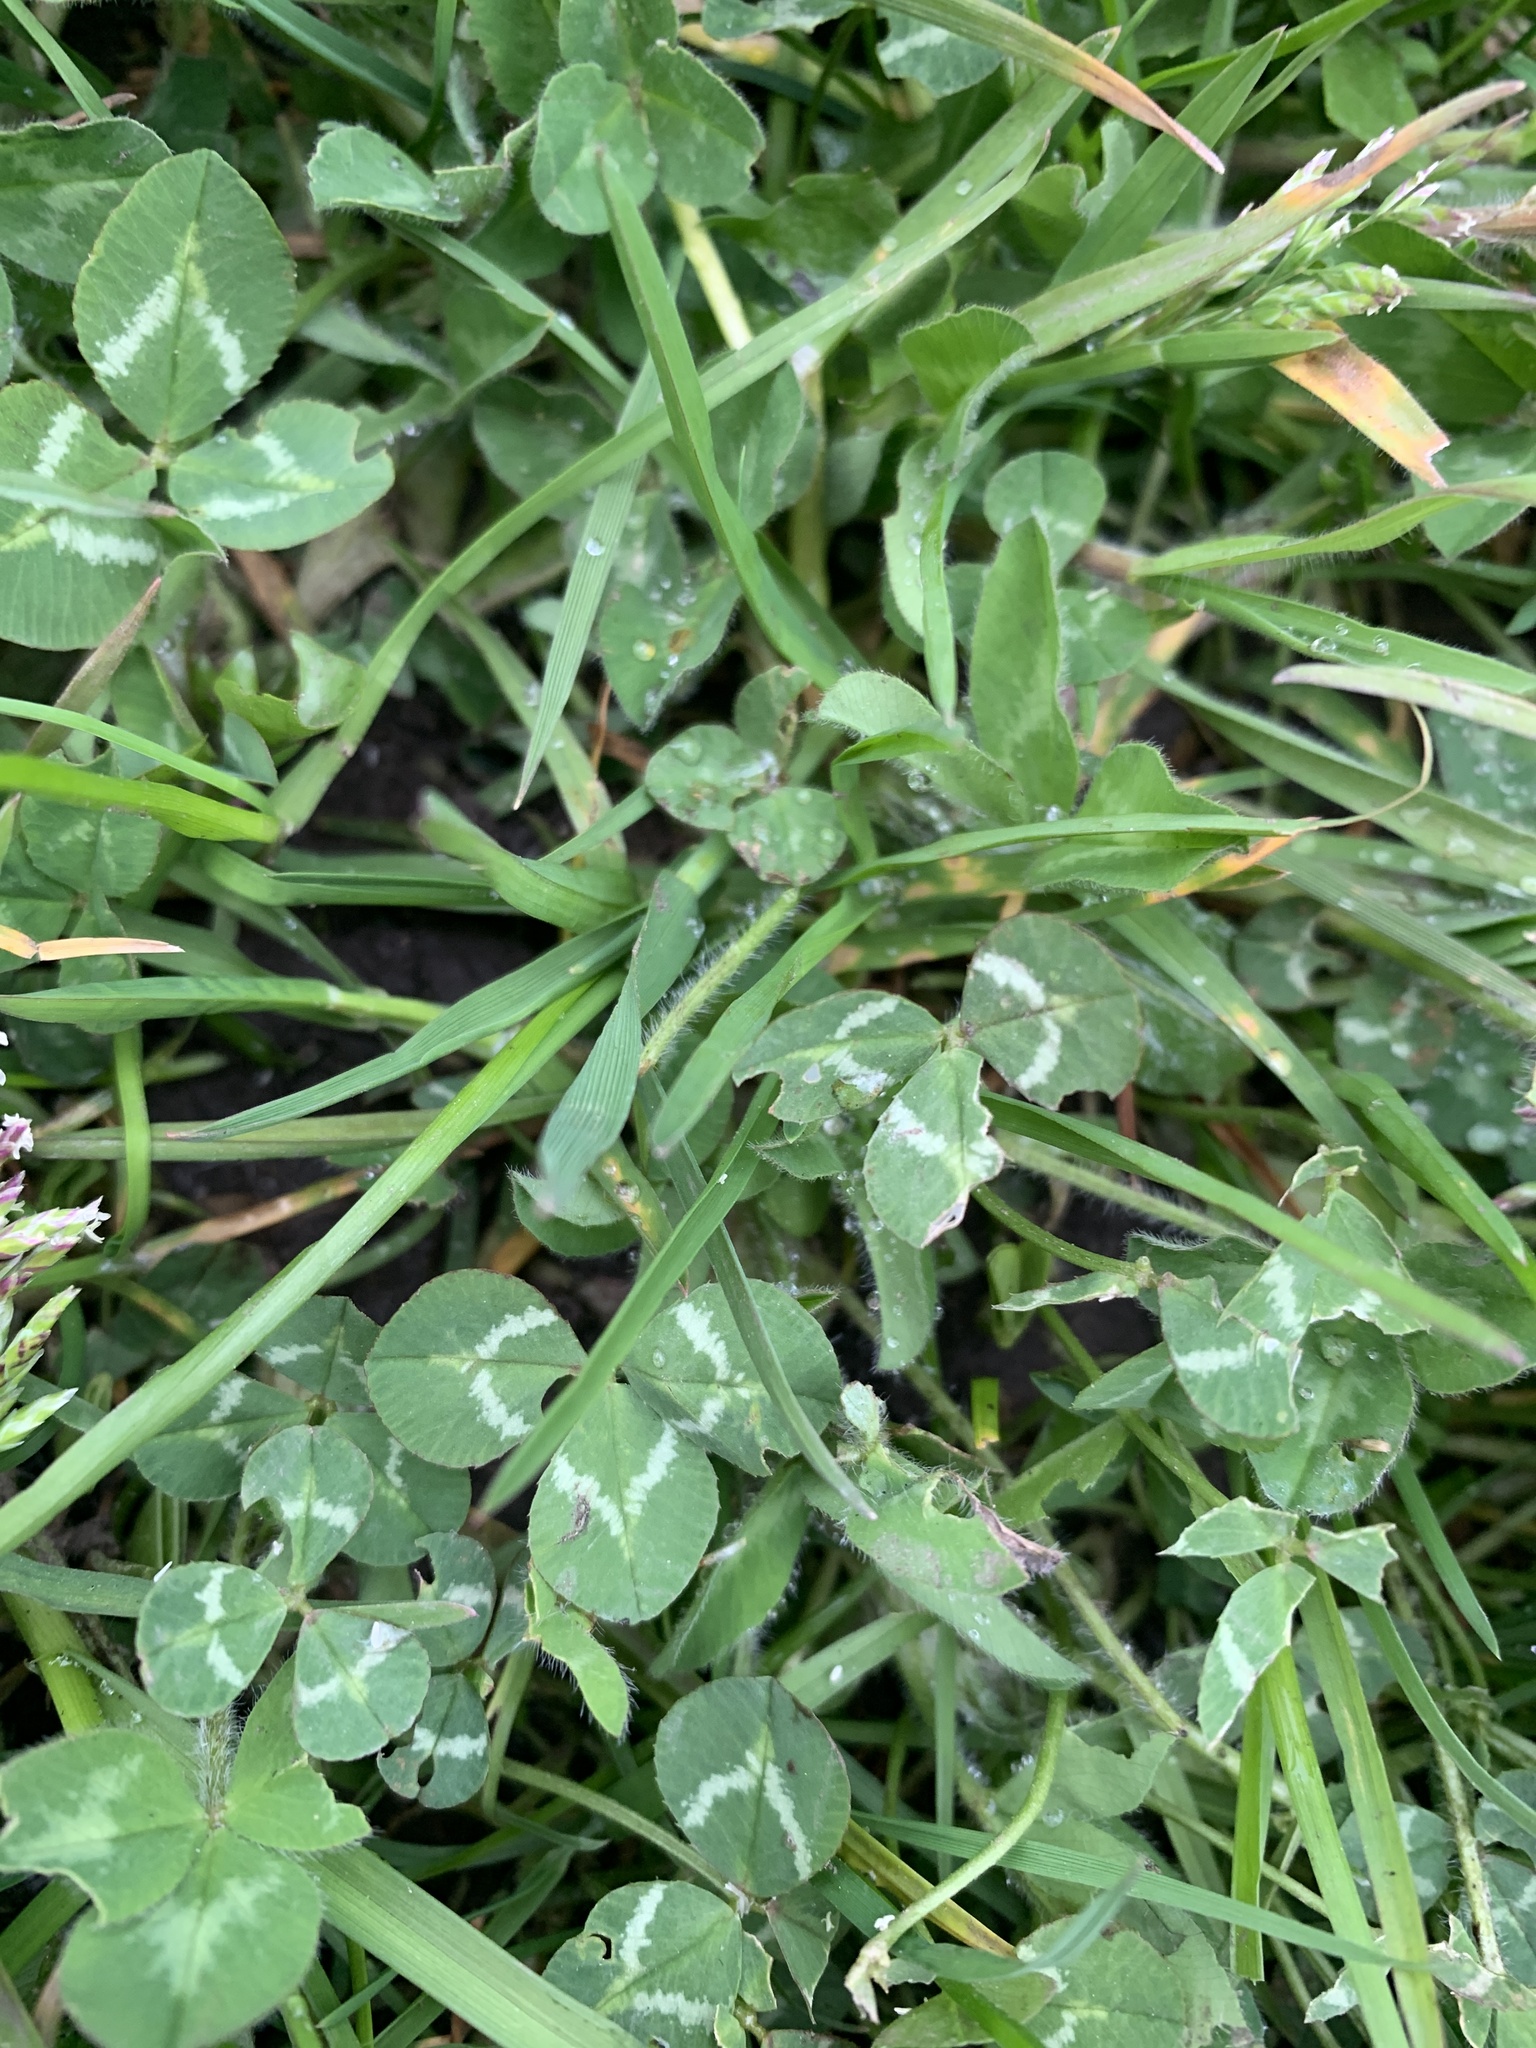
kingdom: Plantae
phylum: Tracheophyta
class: Magnoliopsida
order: Fabales
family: Fabaceae
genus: Trifolium
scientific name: Trifolium repens
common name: White clover
